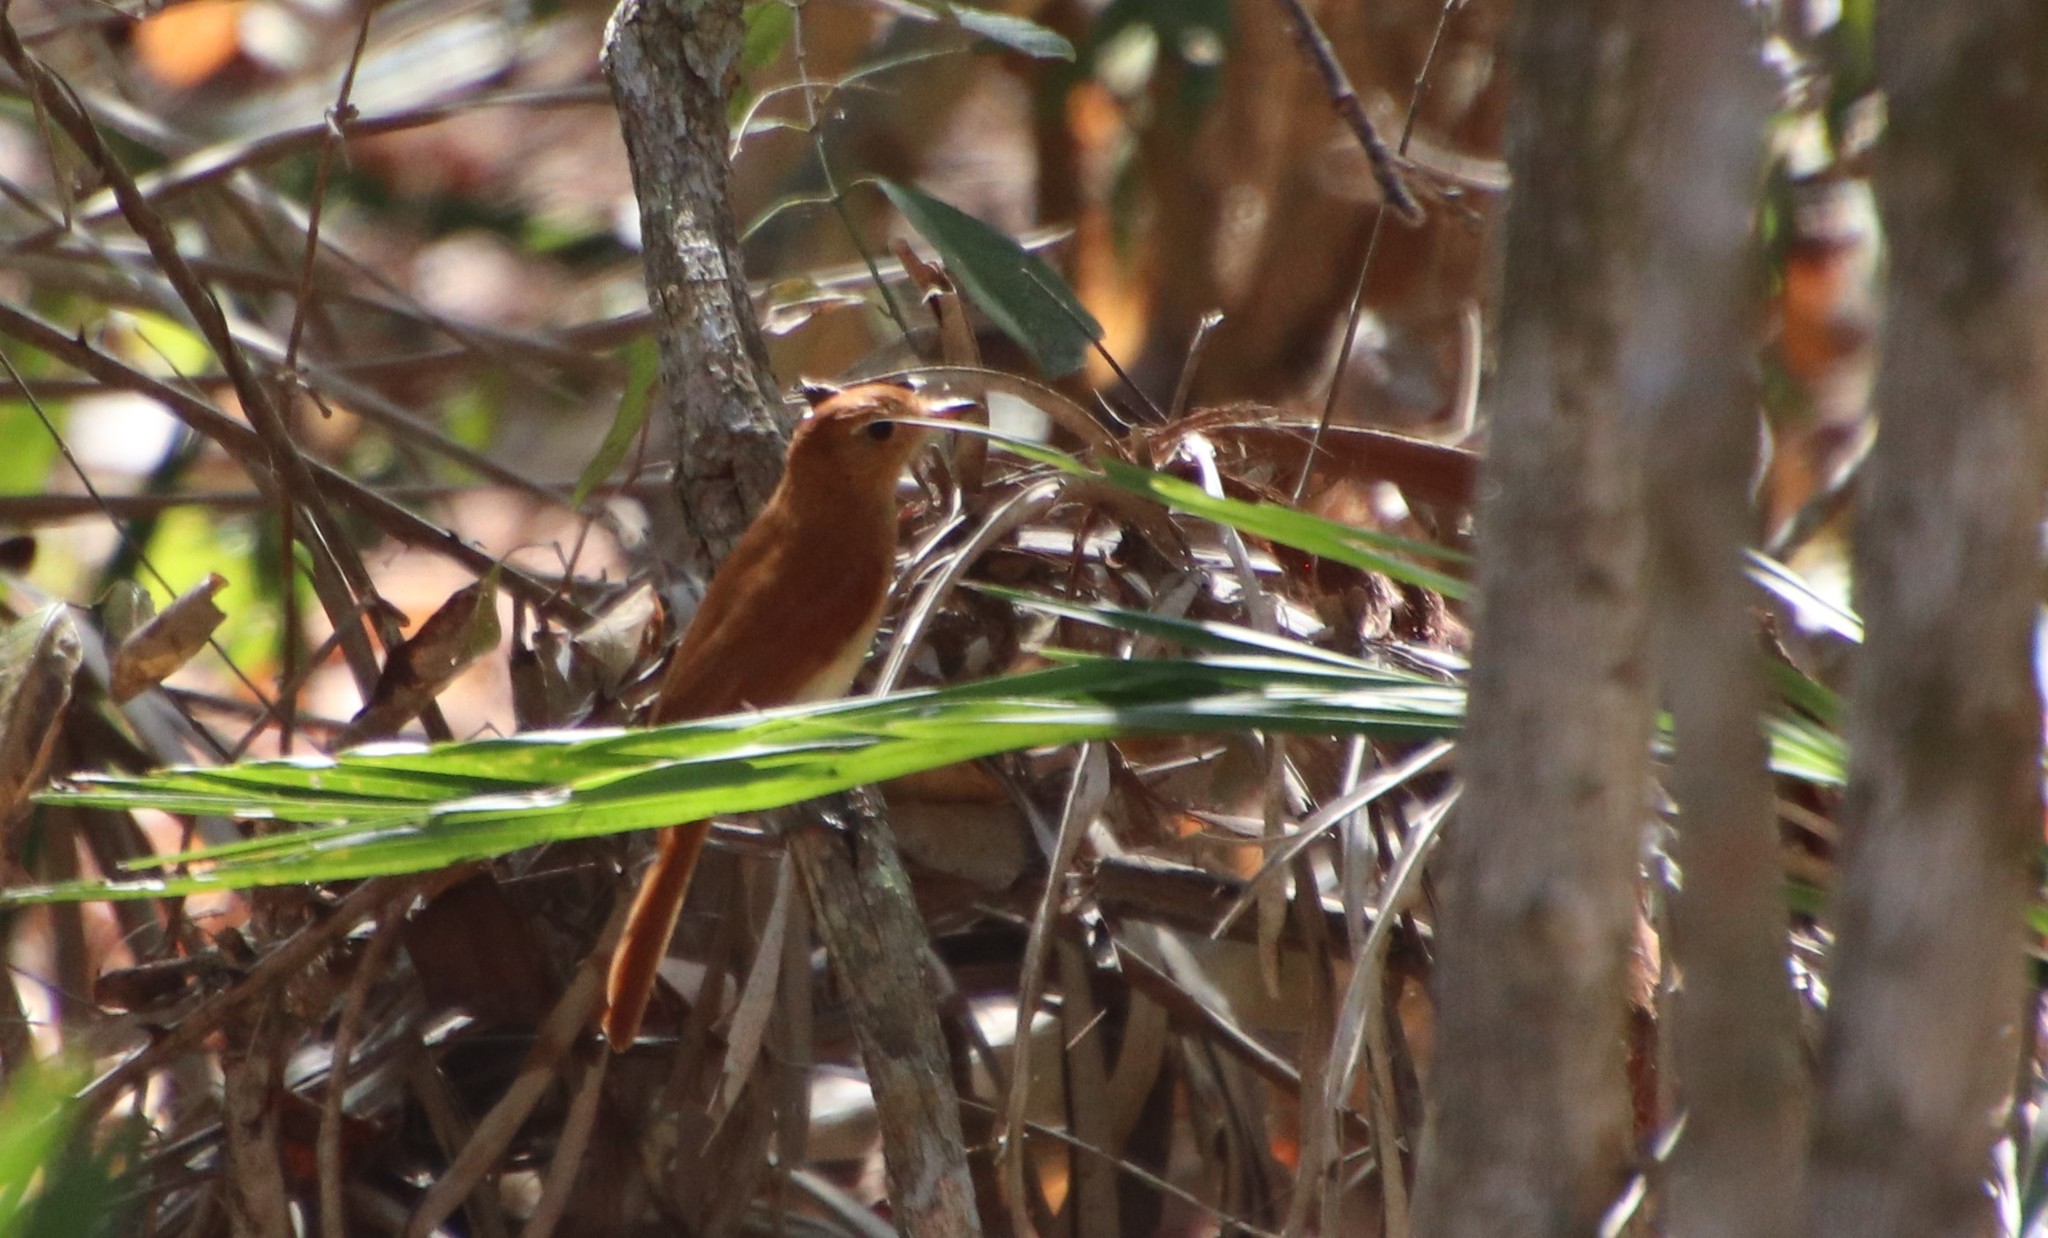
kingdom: Animalia
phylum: Chordata
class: Aves
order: Passeriformes
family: Tyrannidae
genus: Casiornis
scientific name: Casiornis rufus
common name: Rufous casiornis
